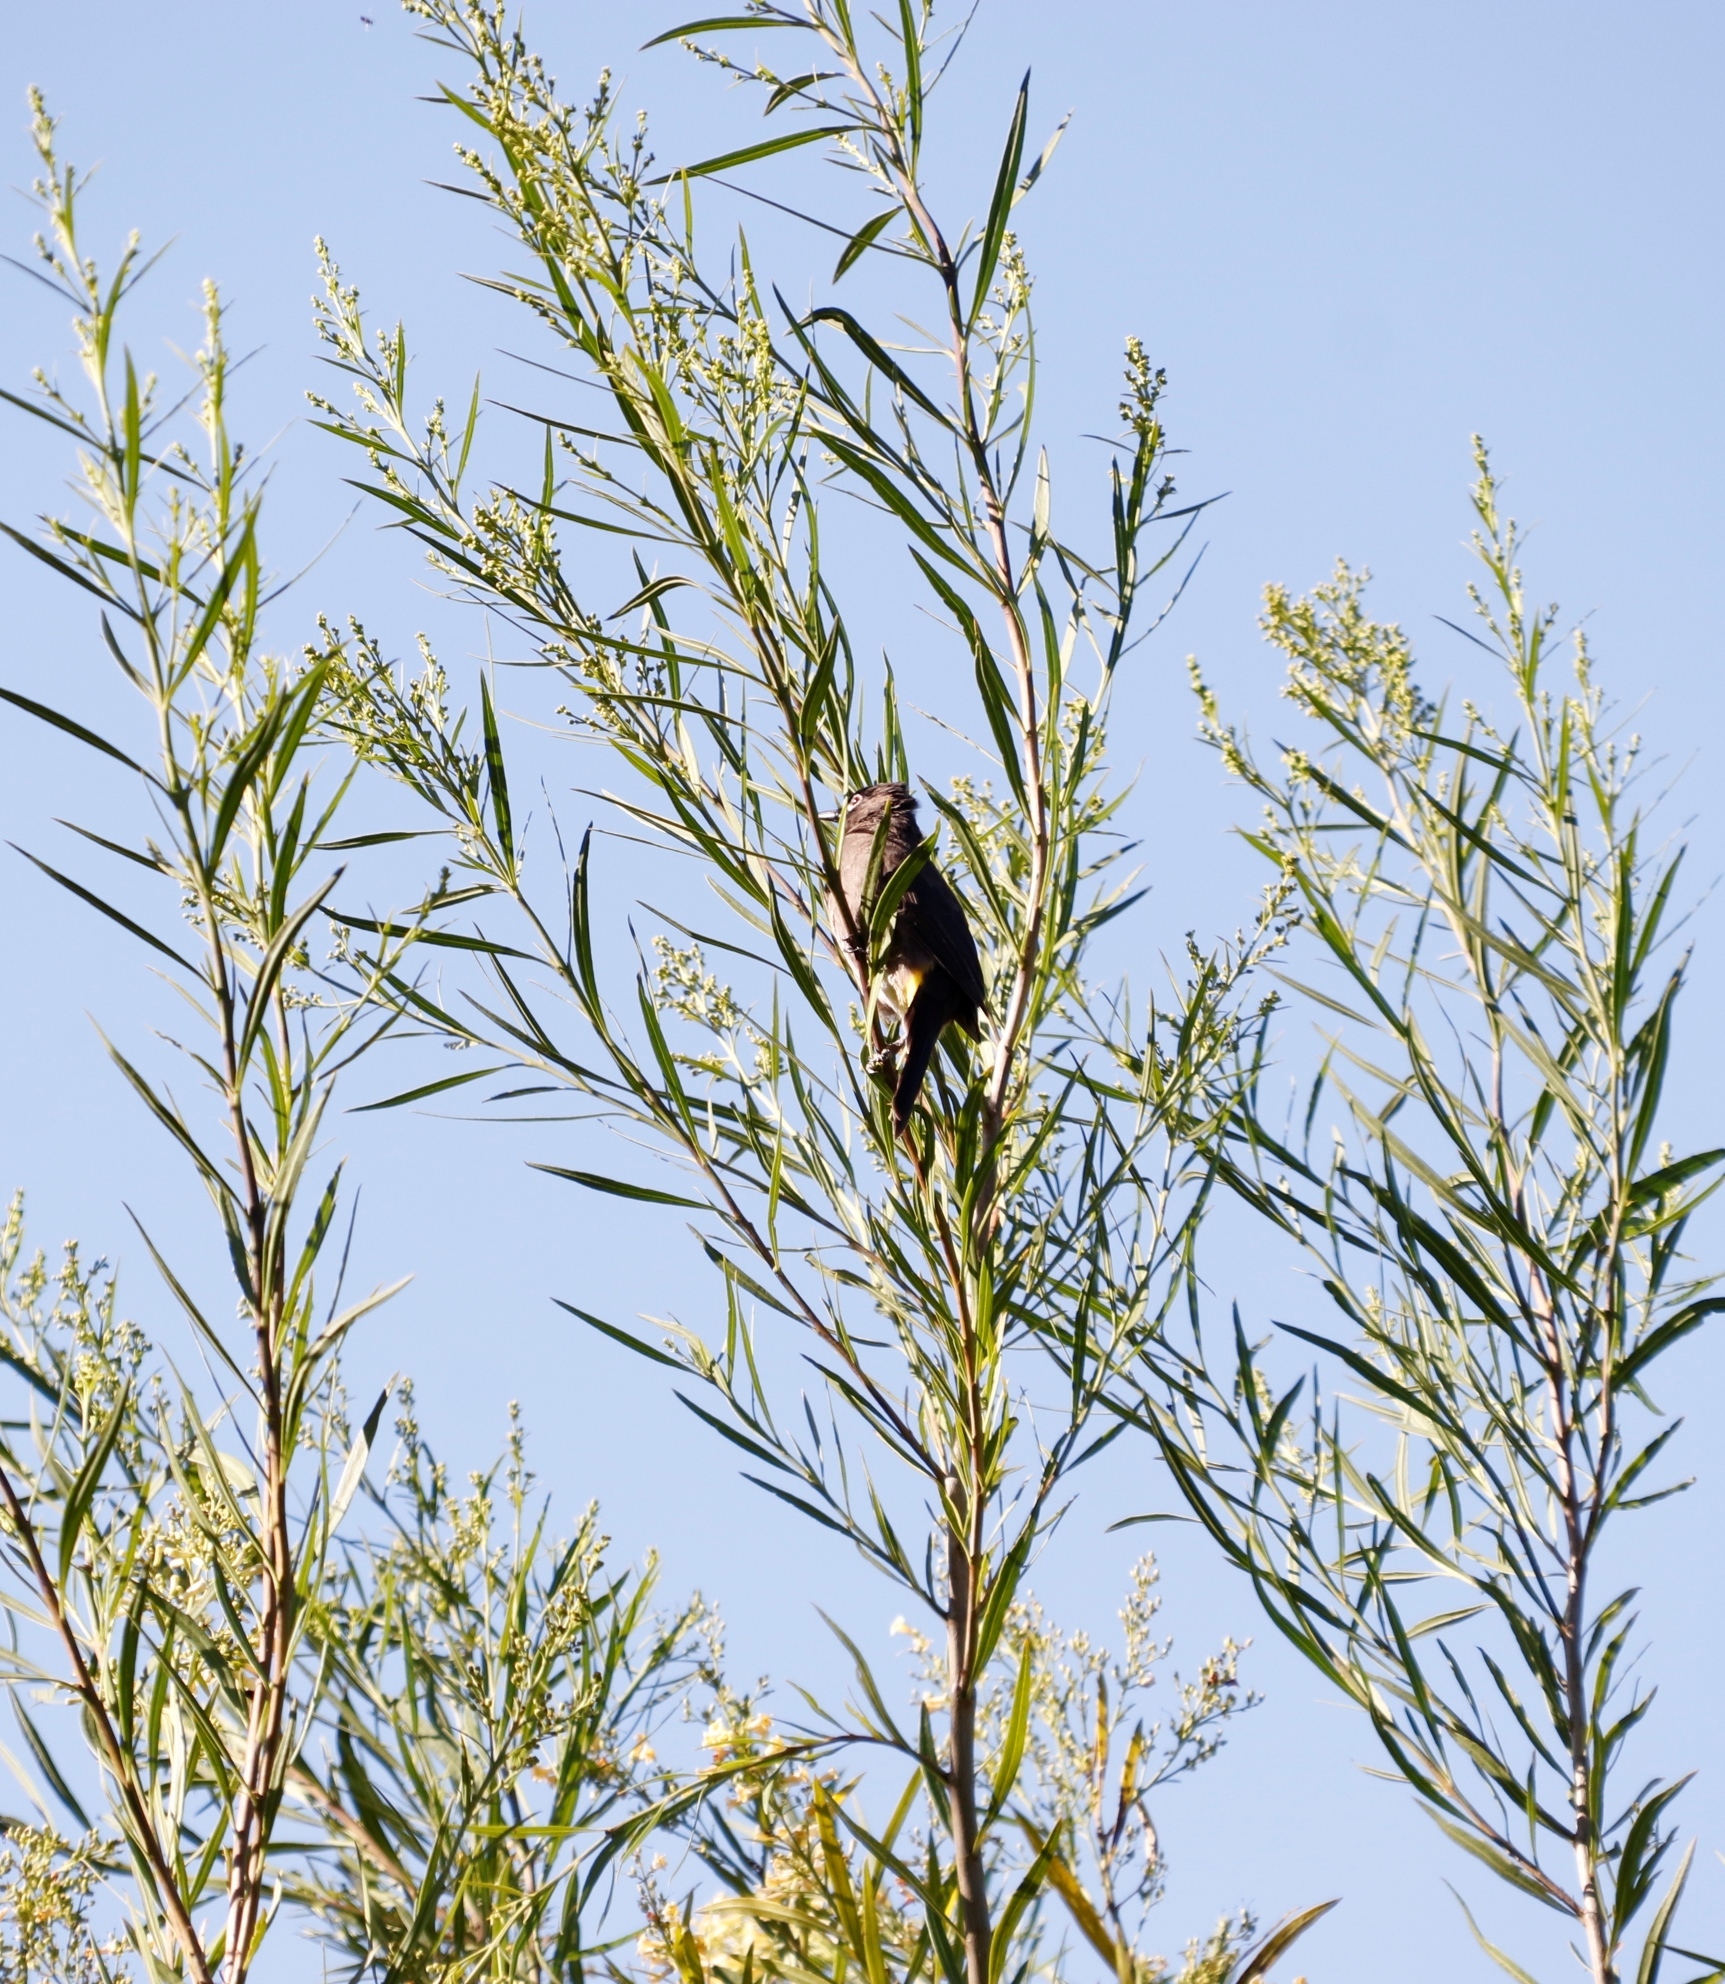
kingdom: Animalia
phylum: Chordata
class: Aves
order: Passeriformes
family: Nectariniidae
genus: Cinnyris
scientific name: Cinnyris chalybeus
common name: Southern double-collared sunbird
